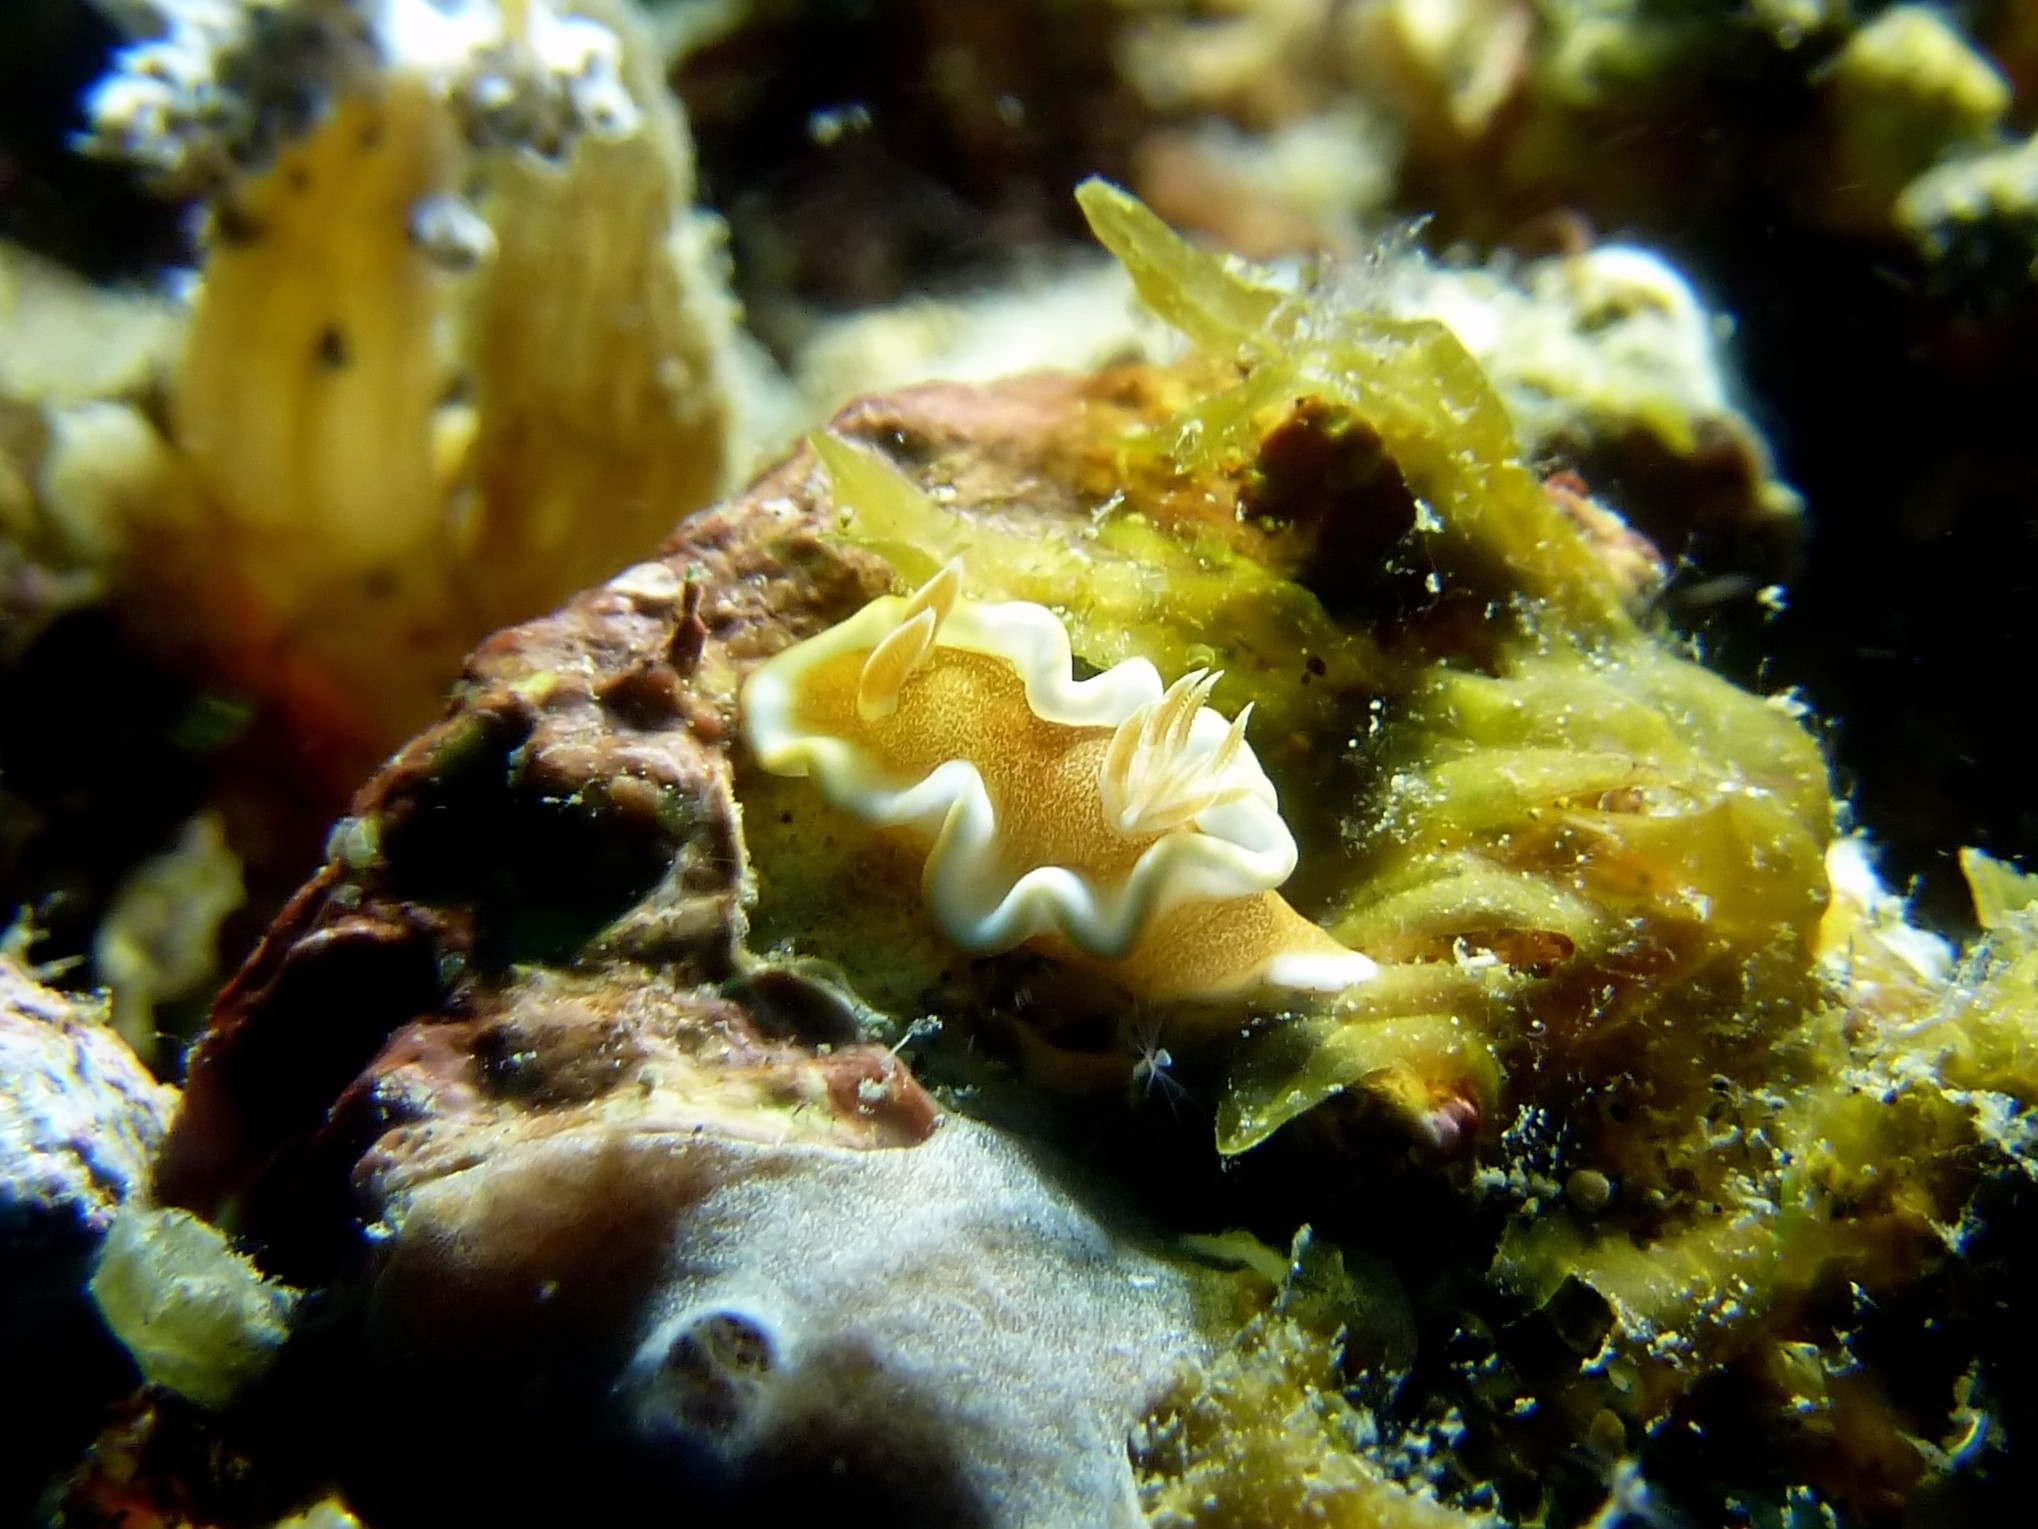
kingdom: Animalia
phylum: Mollusca
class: Gastropoda
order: Nudibranchia
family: Chromodorididae
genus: Glossodoris
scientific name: Glossodoris rufomarginata
